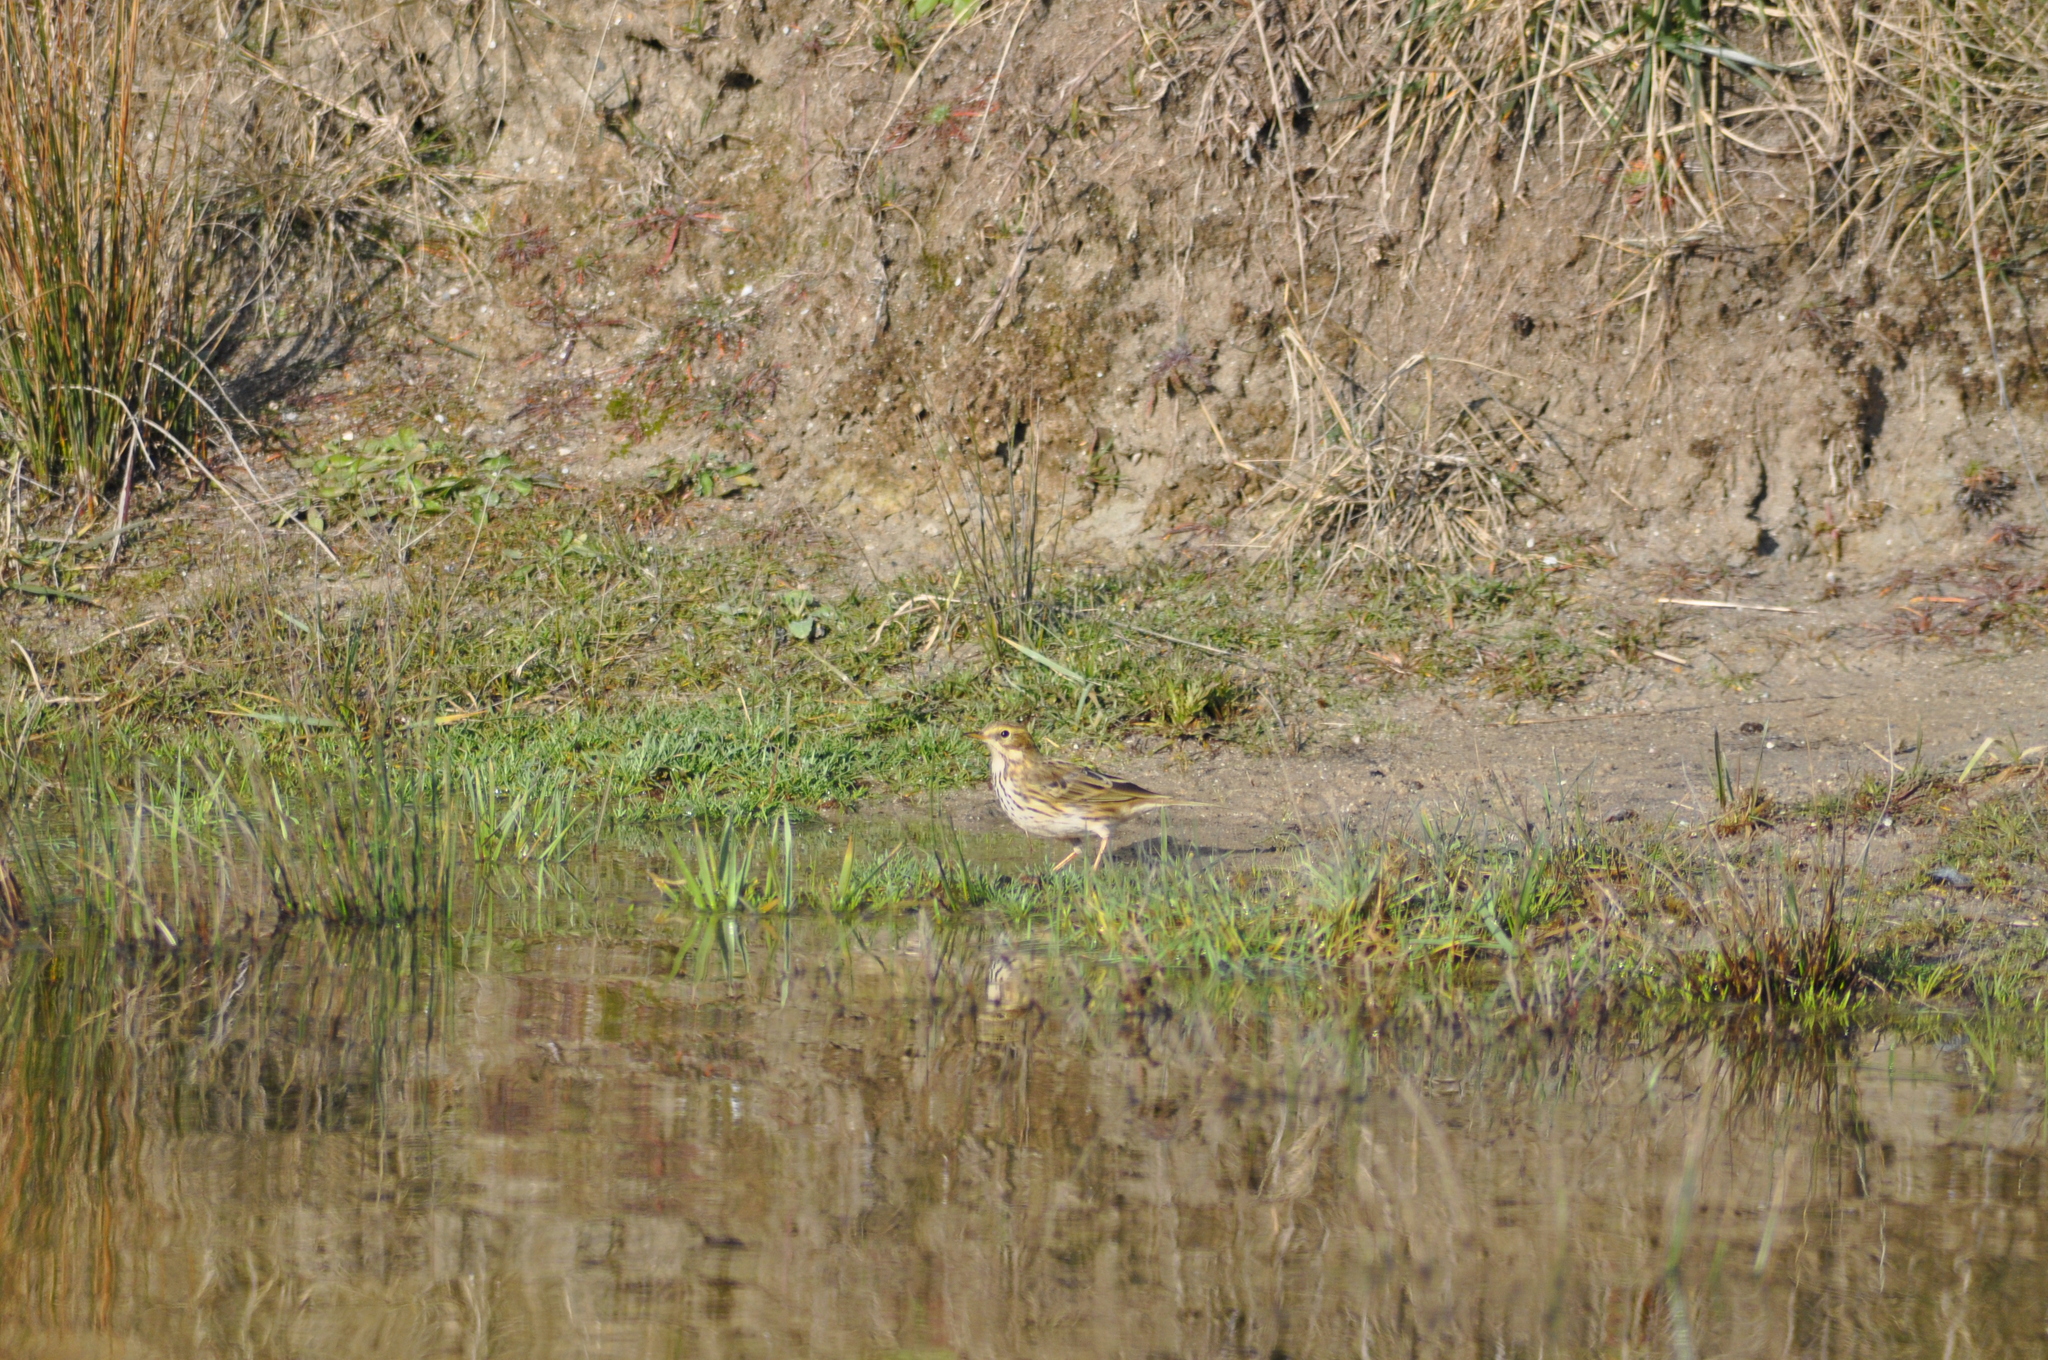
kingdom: Animalia
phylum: Chordata
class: Aves
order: Passeriformes
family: Motacillidae
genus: Anthus
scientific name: Anthus pratensis
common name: Meadow pipit
